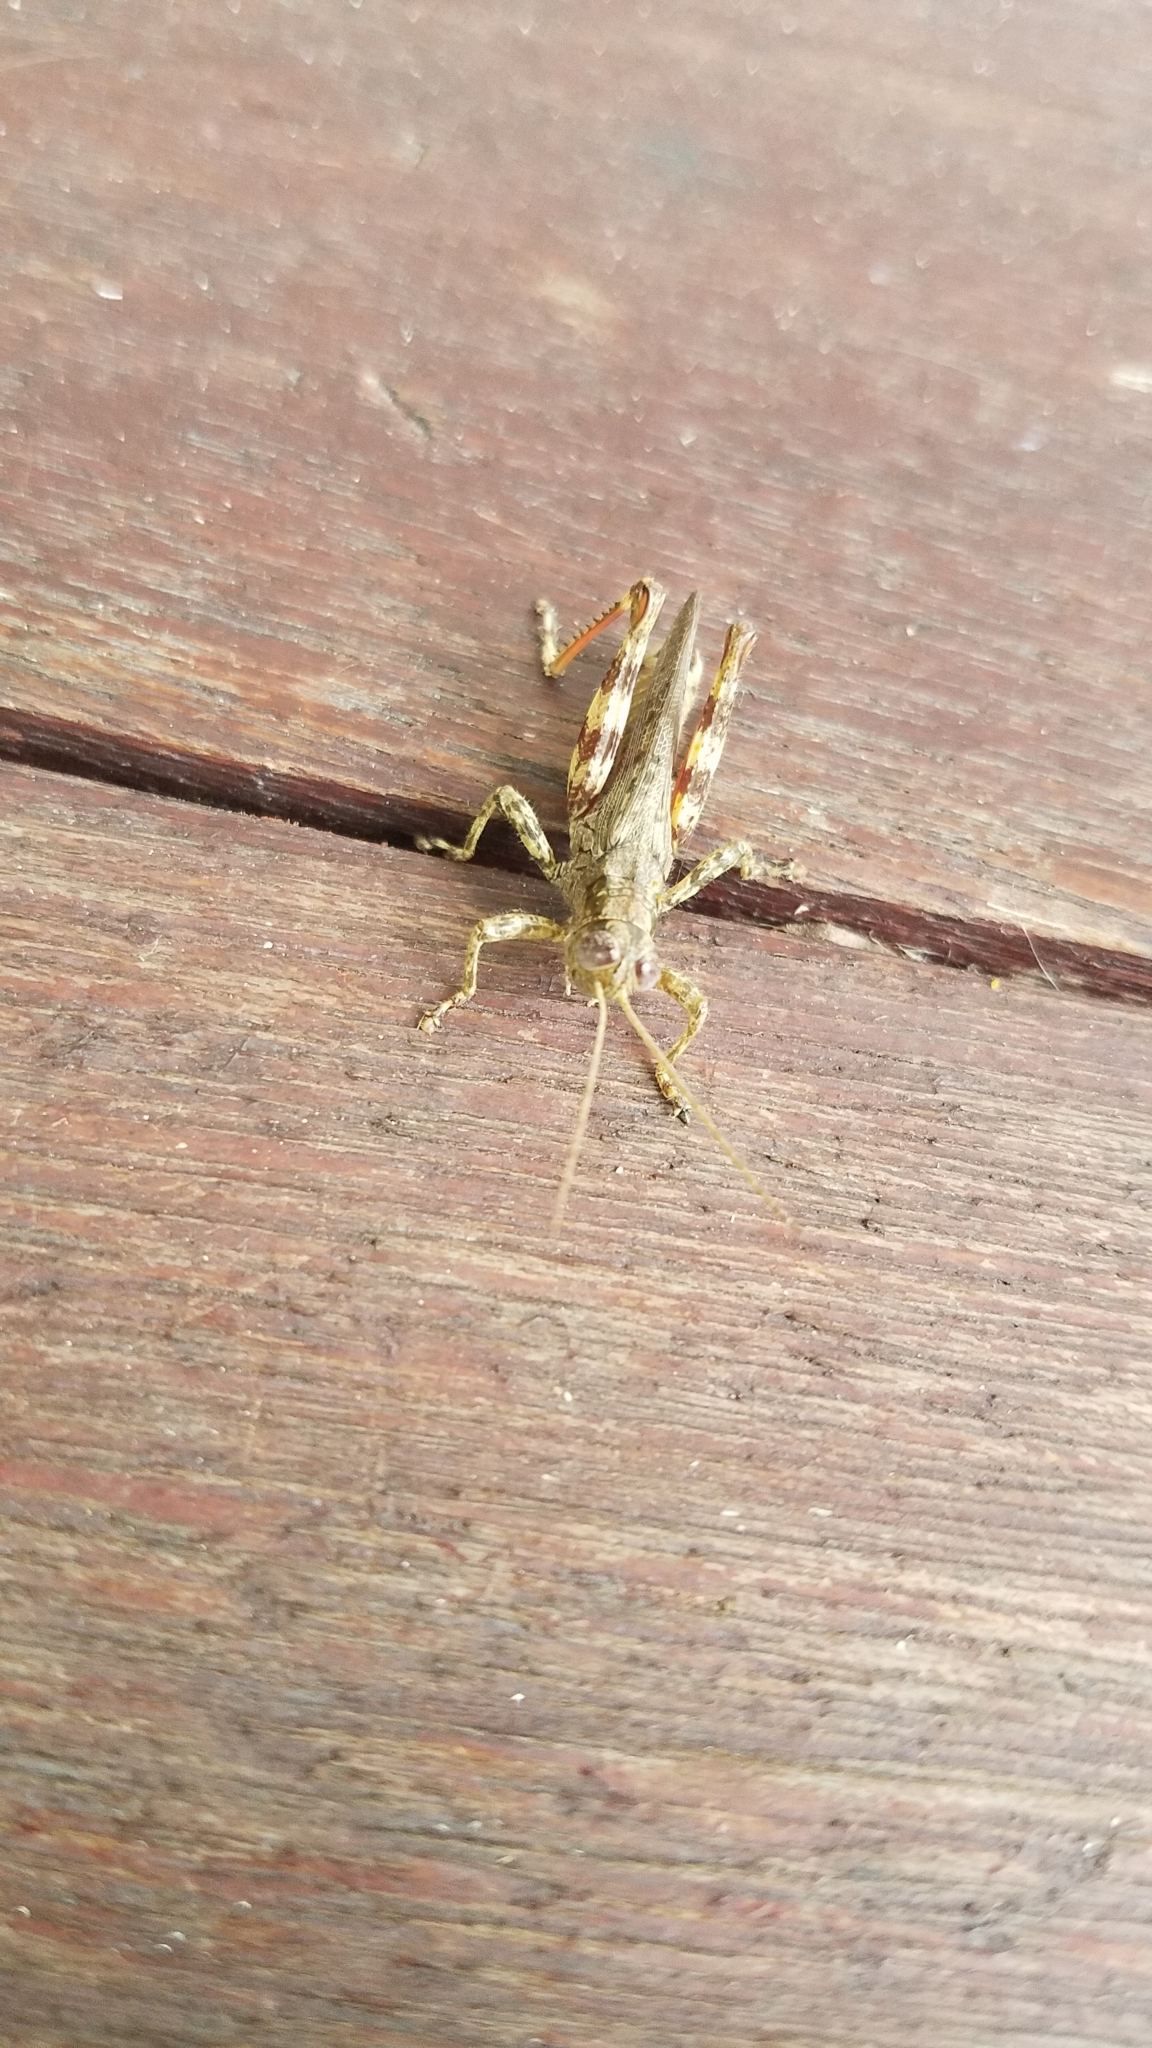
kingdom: Animalia
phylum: Arthropoda
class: Insecta
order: Orthoptera
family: Acrididae
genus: Melanoplus
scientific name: Melanoplus punctulatus
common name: Pine-tree spur-throat grasshopper
